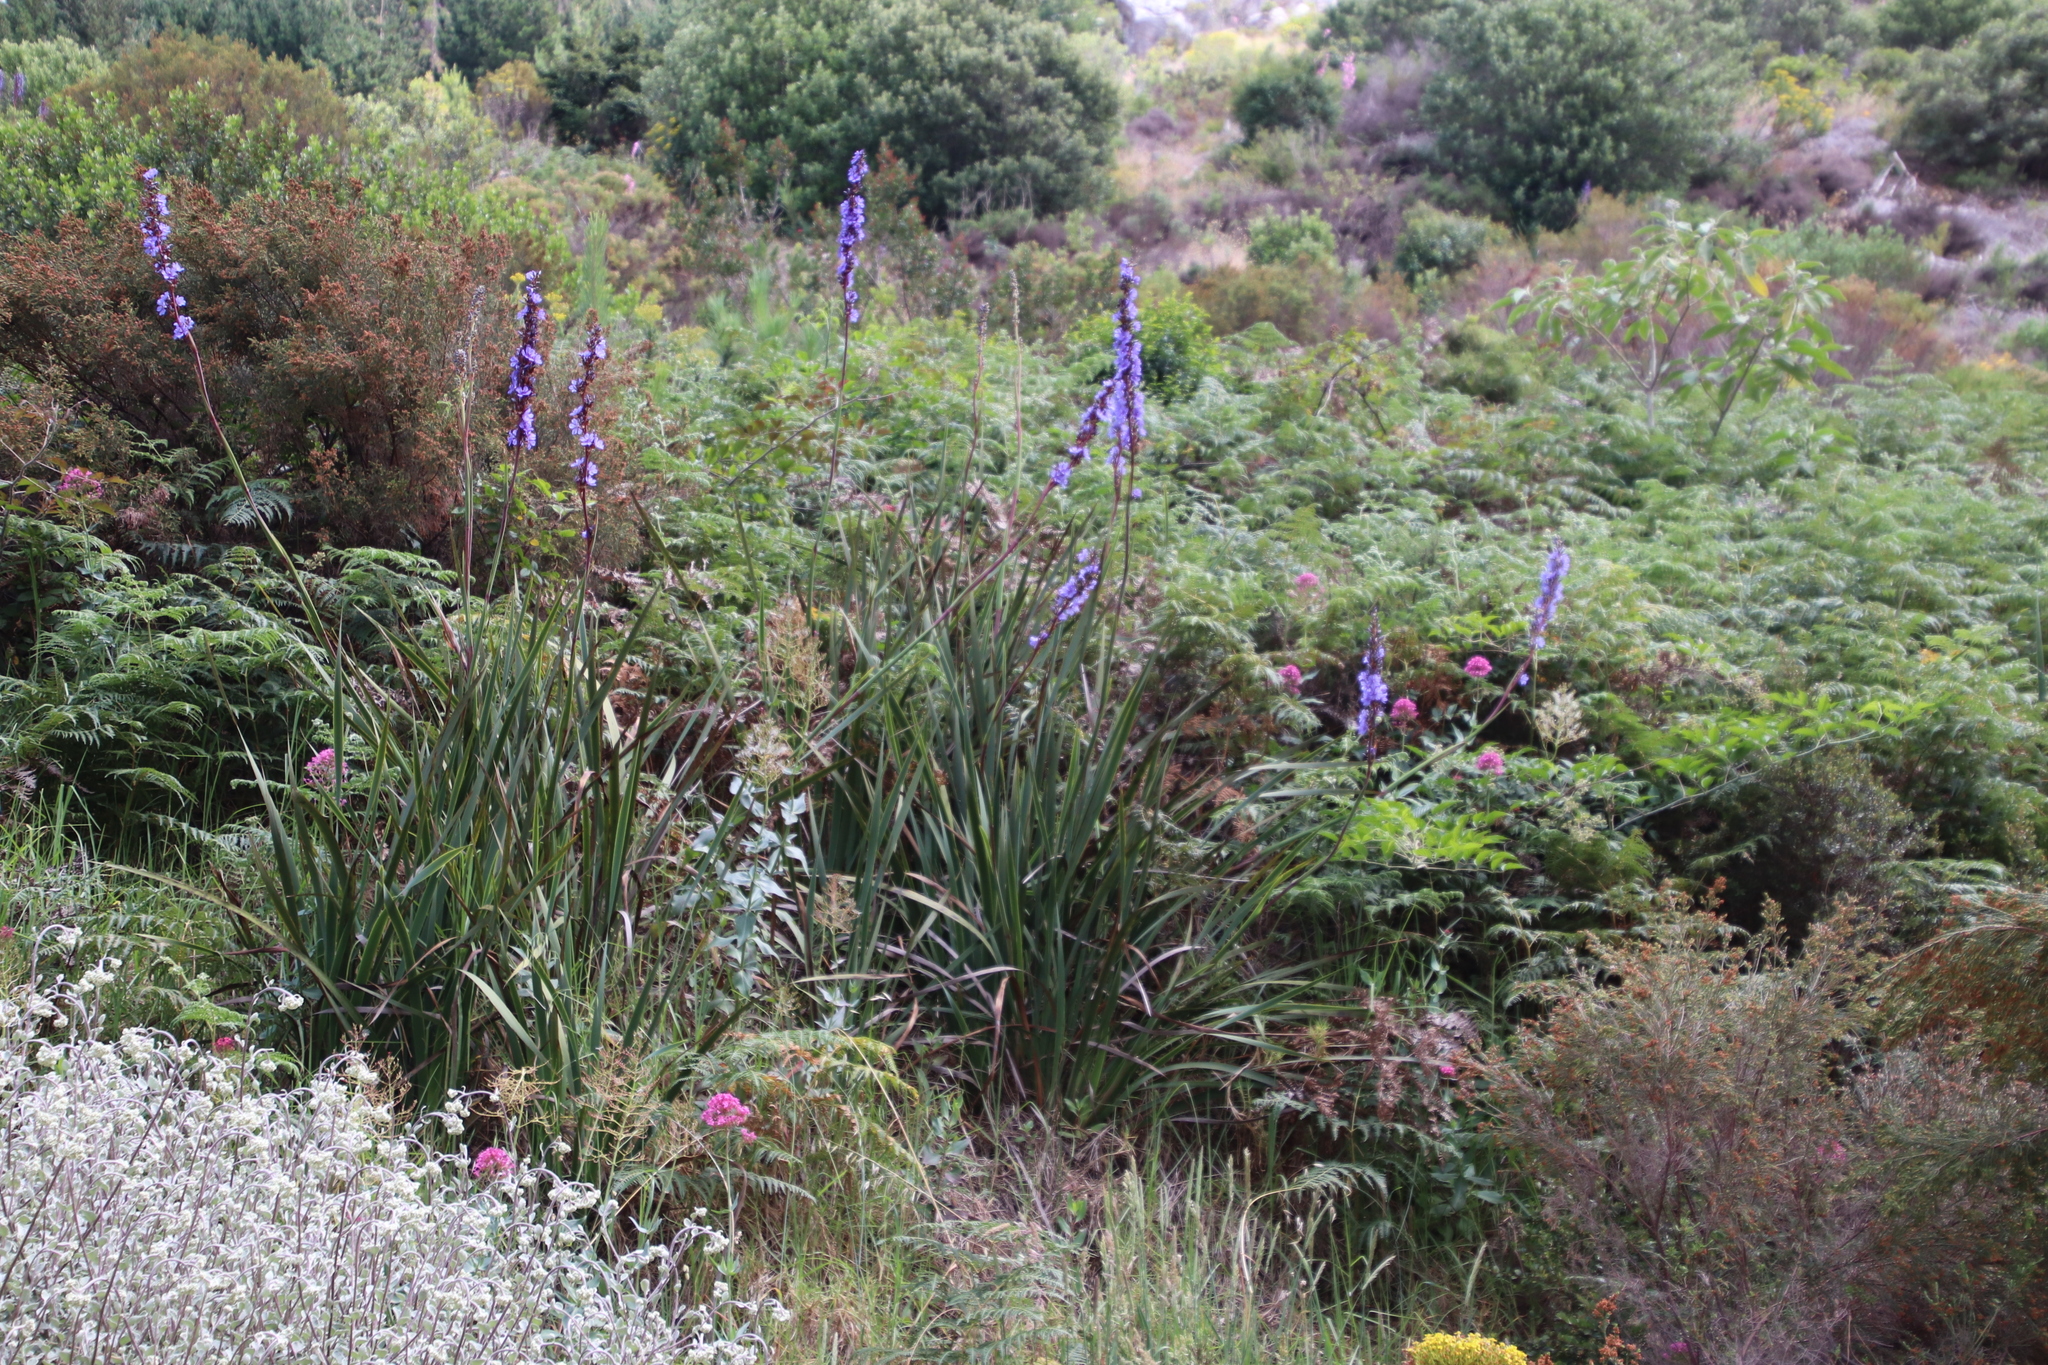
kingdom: Plantae
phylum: Tracheophyta
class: Liliopsida
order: Asparagales
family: Iridaceae
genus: Aristea
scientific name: Aristea capitata
